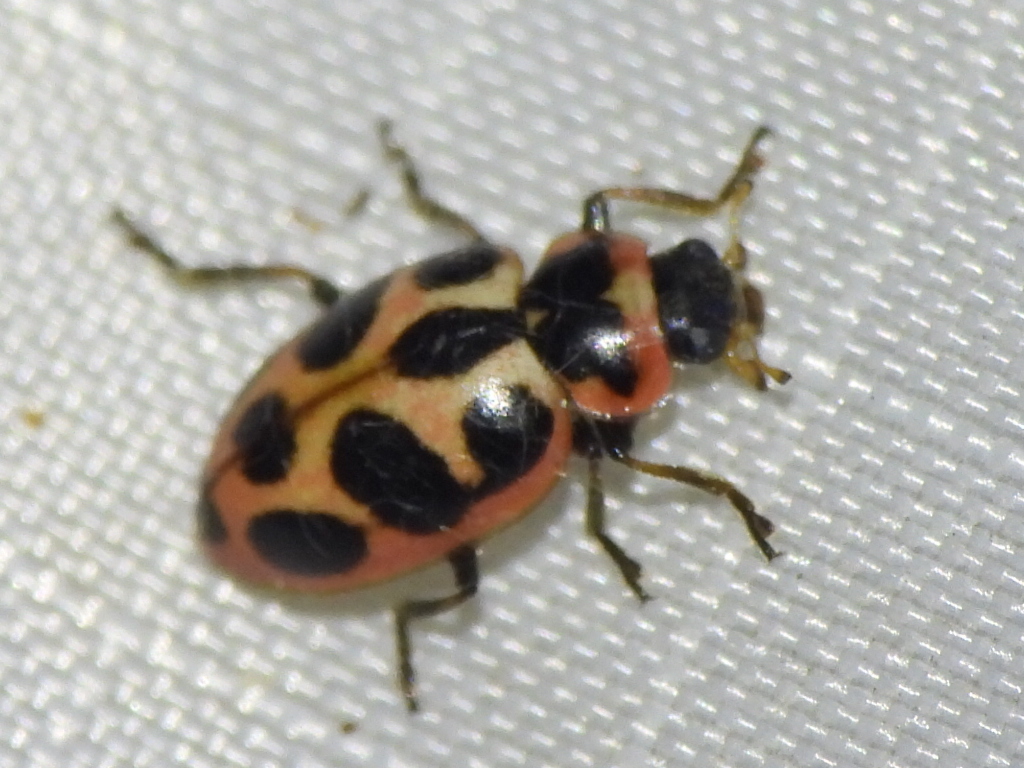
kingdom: Animalia
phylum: Arthropoda
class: Insecta
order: Coleoptera
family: Coccinellidae
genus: Naemia
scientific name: Naemia seriata
